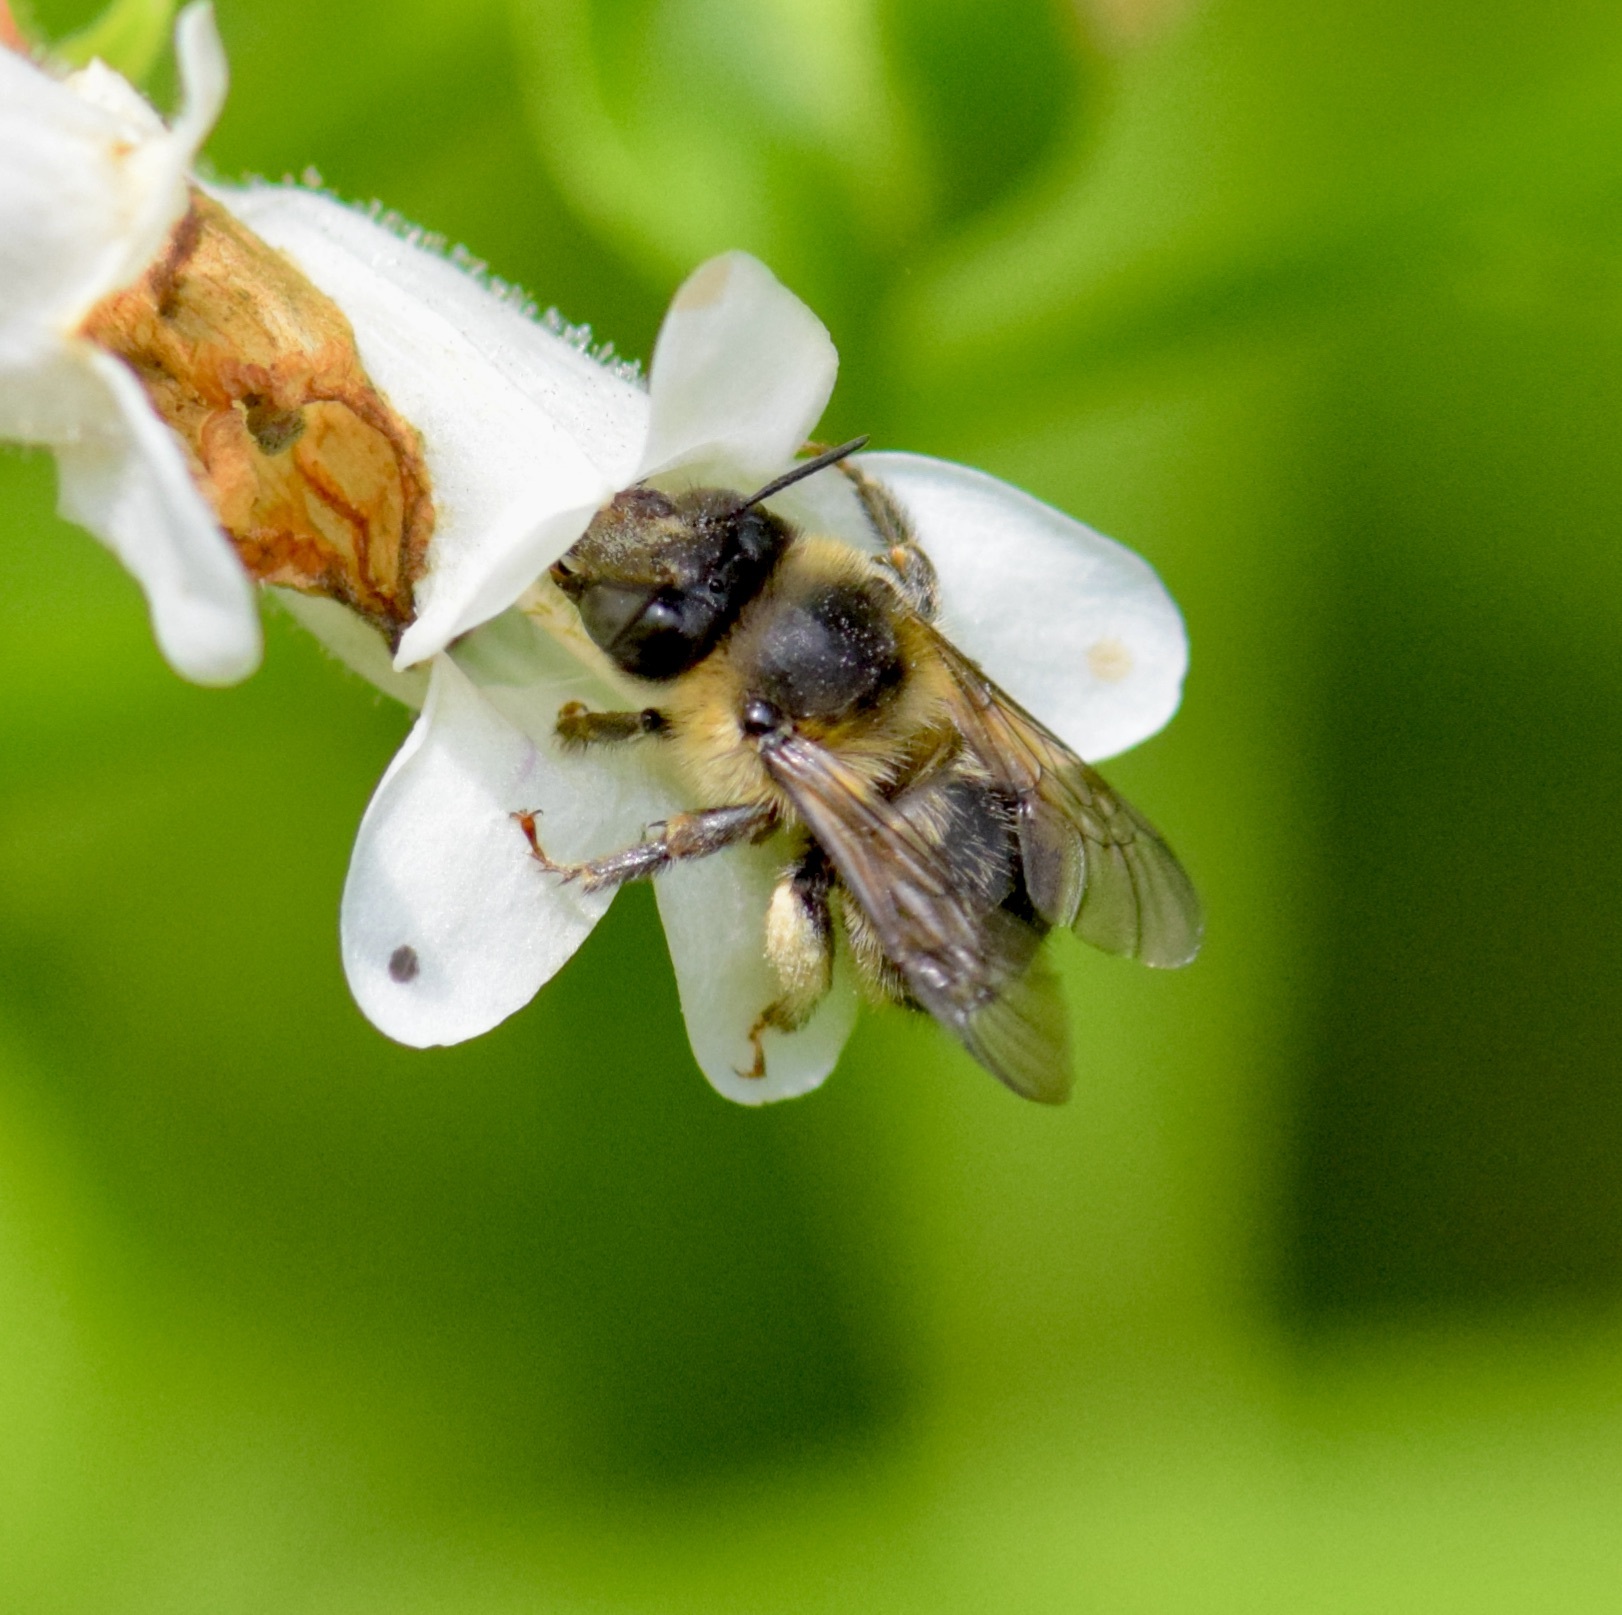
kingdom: Animalia
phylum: Arthropoda
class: Insecta
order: Hymenoptera
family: Apidae
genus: Anthophora
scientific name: Anthophora terminalis
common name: Orange-tipped wood-digger bee
